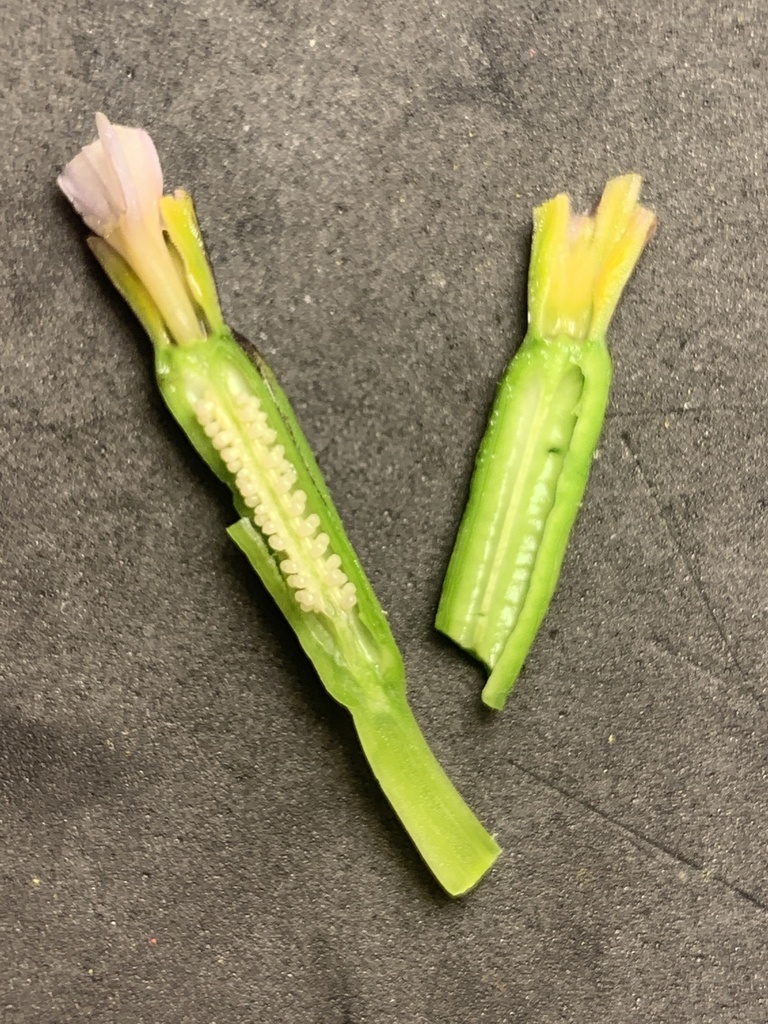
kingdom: Plantae
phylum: Tracheophyta
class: Liliopsida
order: Asparagales
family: Iridaceae
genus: Iris
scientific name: Iris tenax
